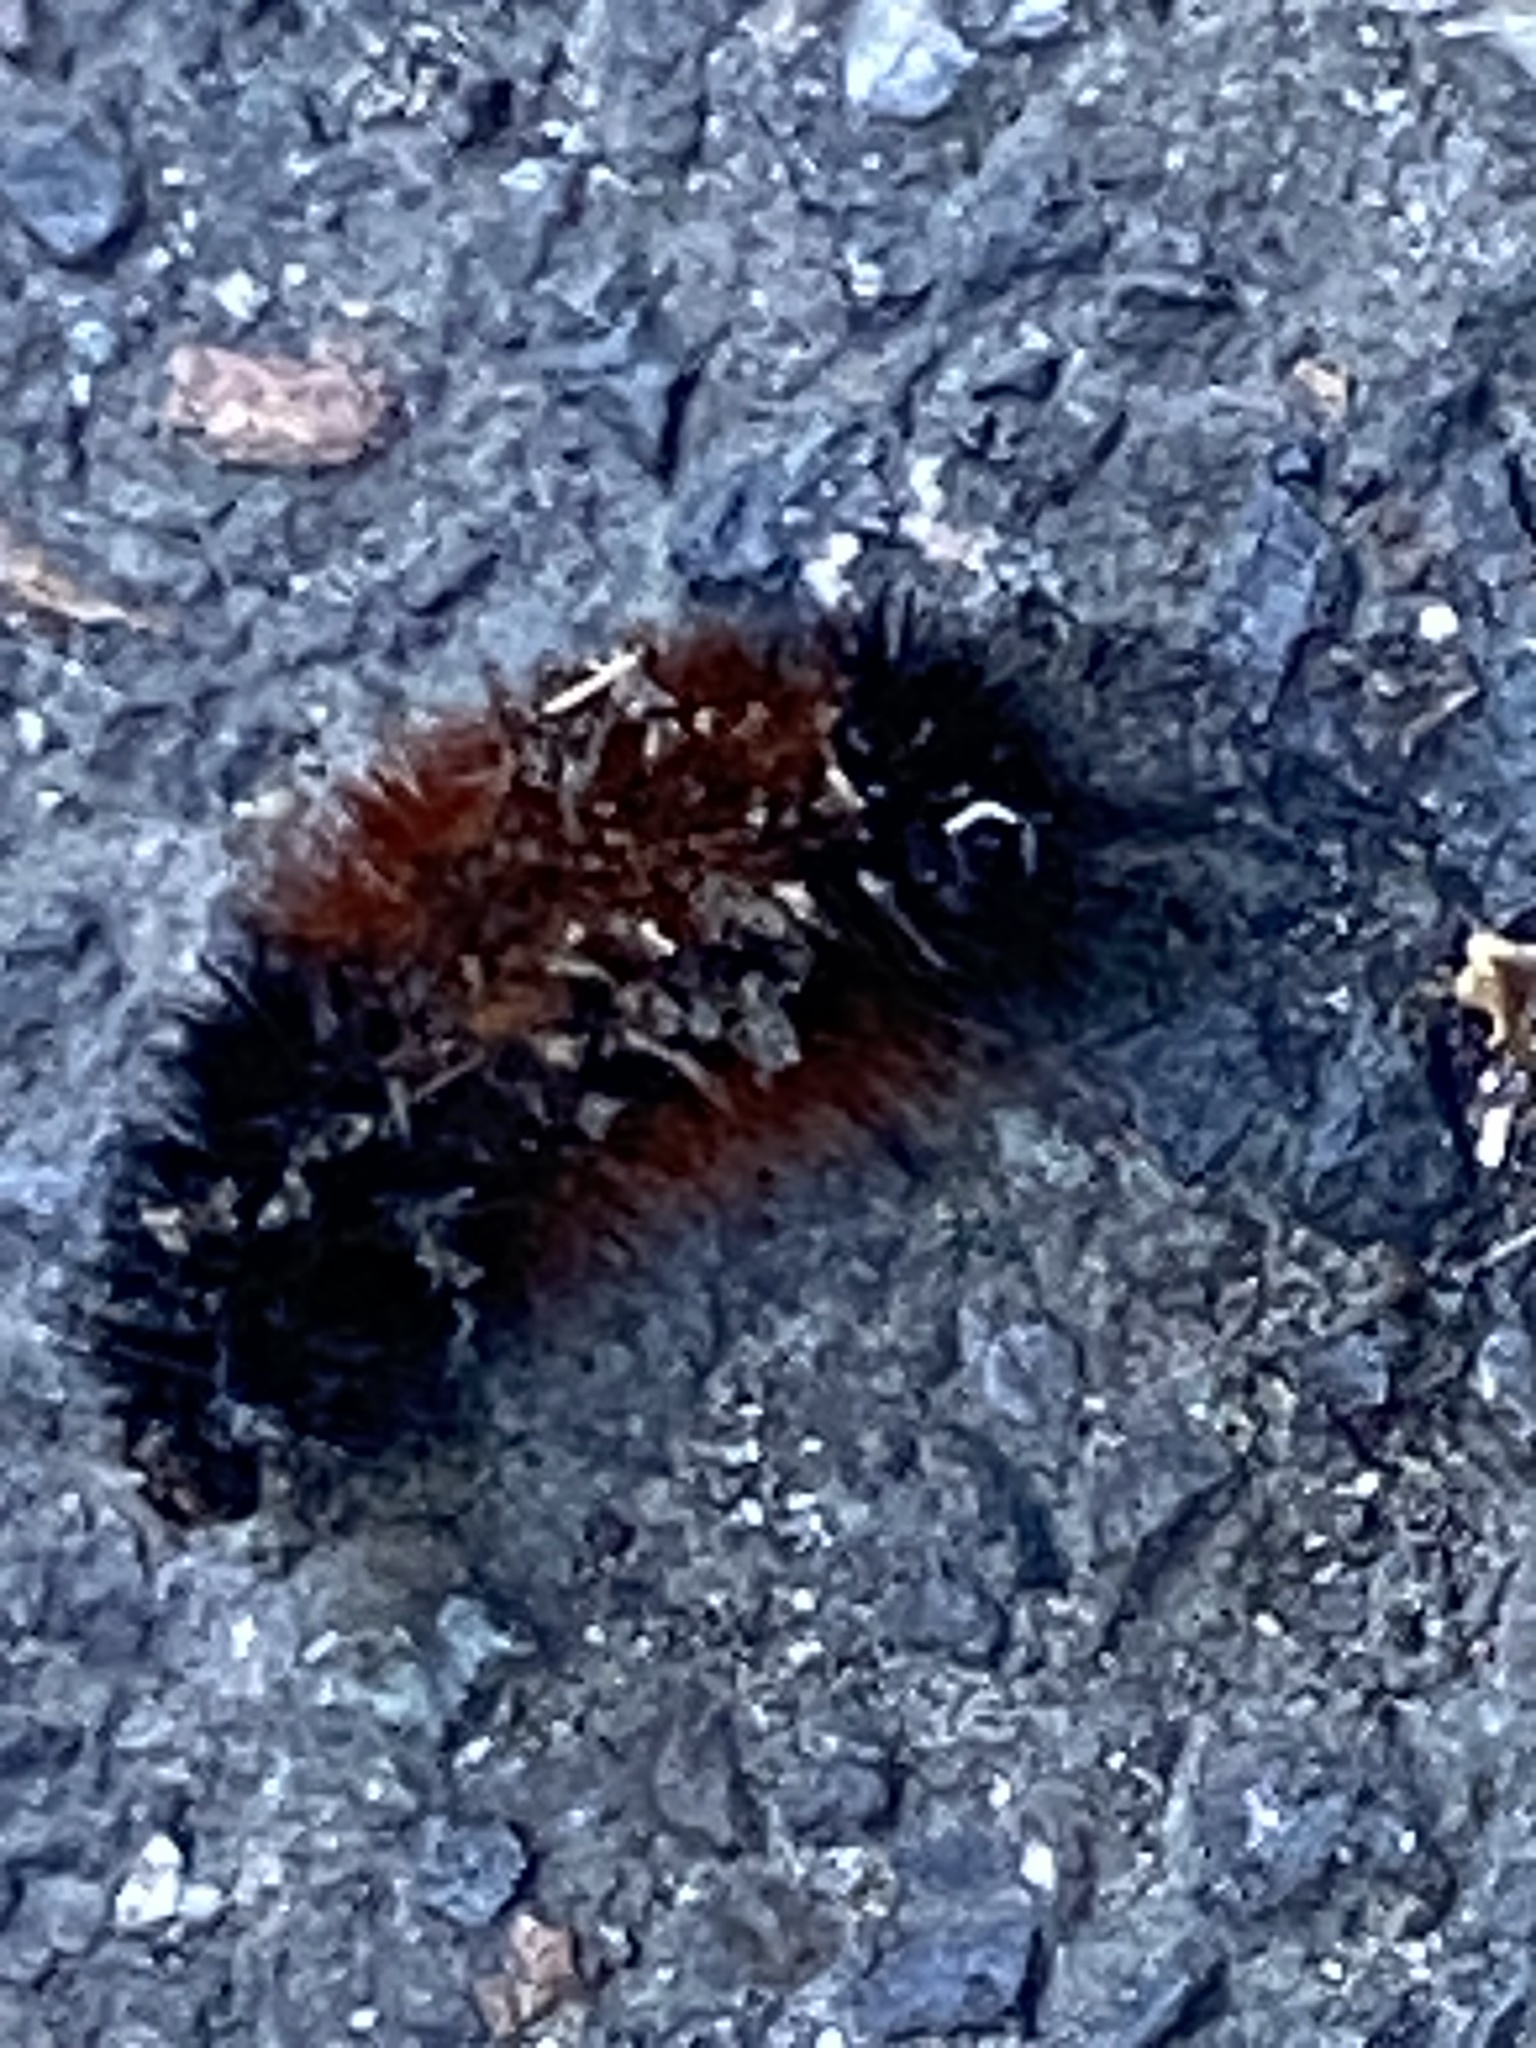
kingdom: Animalia
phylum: Arthropoda
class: Insecta
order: Lepidoptera
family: Erebidae
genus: Pyrrharctia
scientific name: Pyrrharctia isabella
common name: Isabella tiger moth
